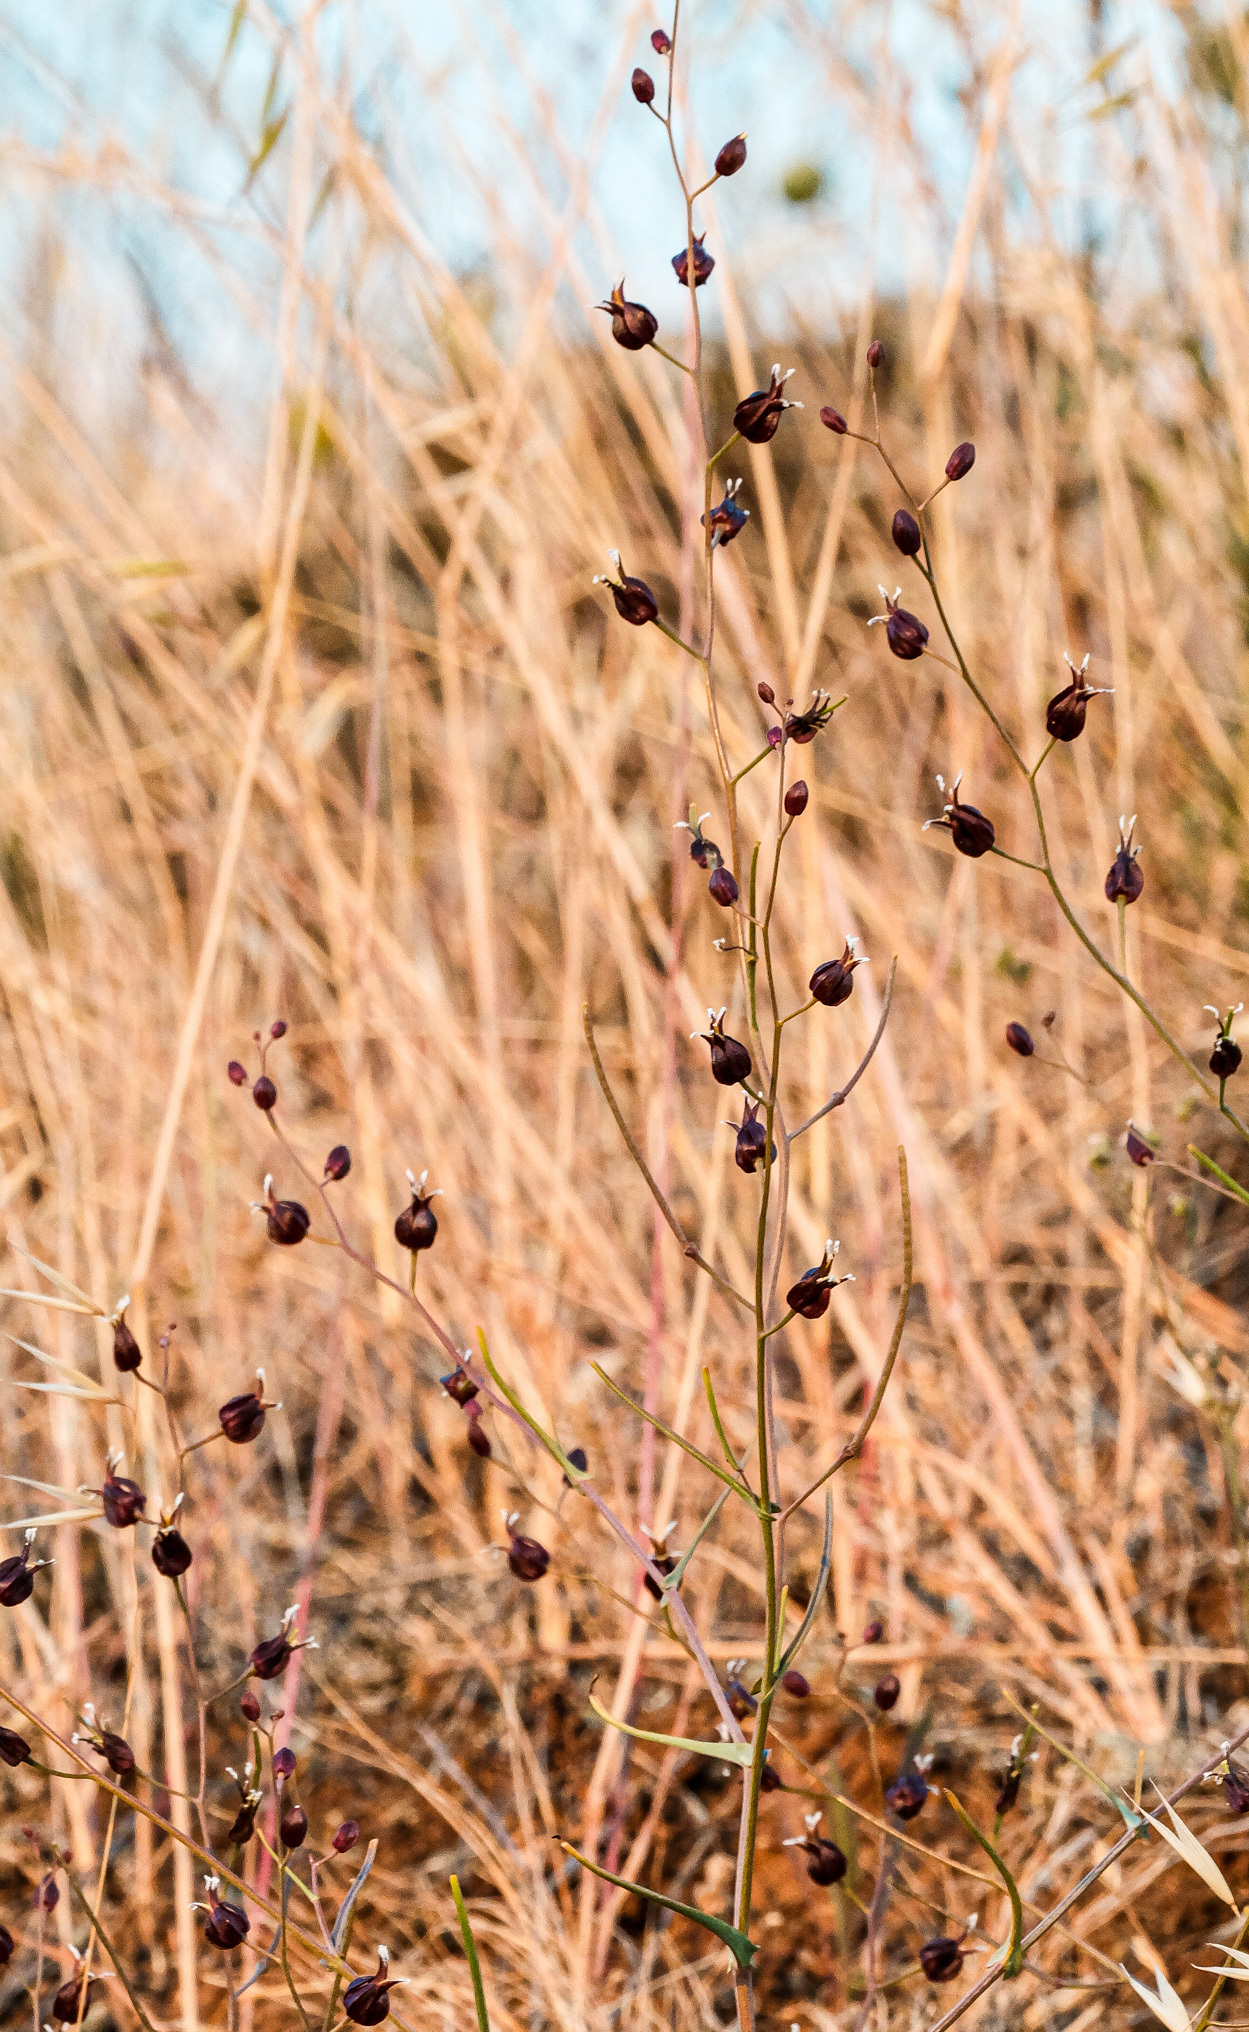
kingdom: Plantae
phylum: Tracheophyta
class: Magnoliopsida
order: Brassicales
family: Brassicaceae
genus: Streptanthus
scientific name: Streptanthus glandulosus
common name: Jewel-flower
